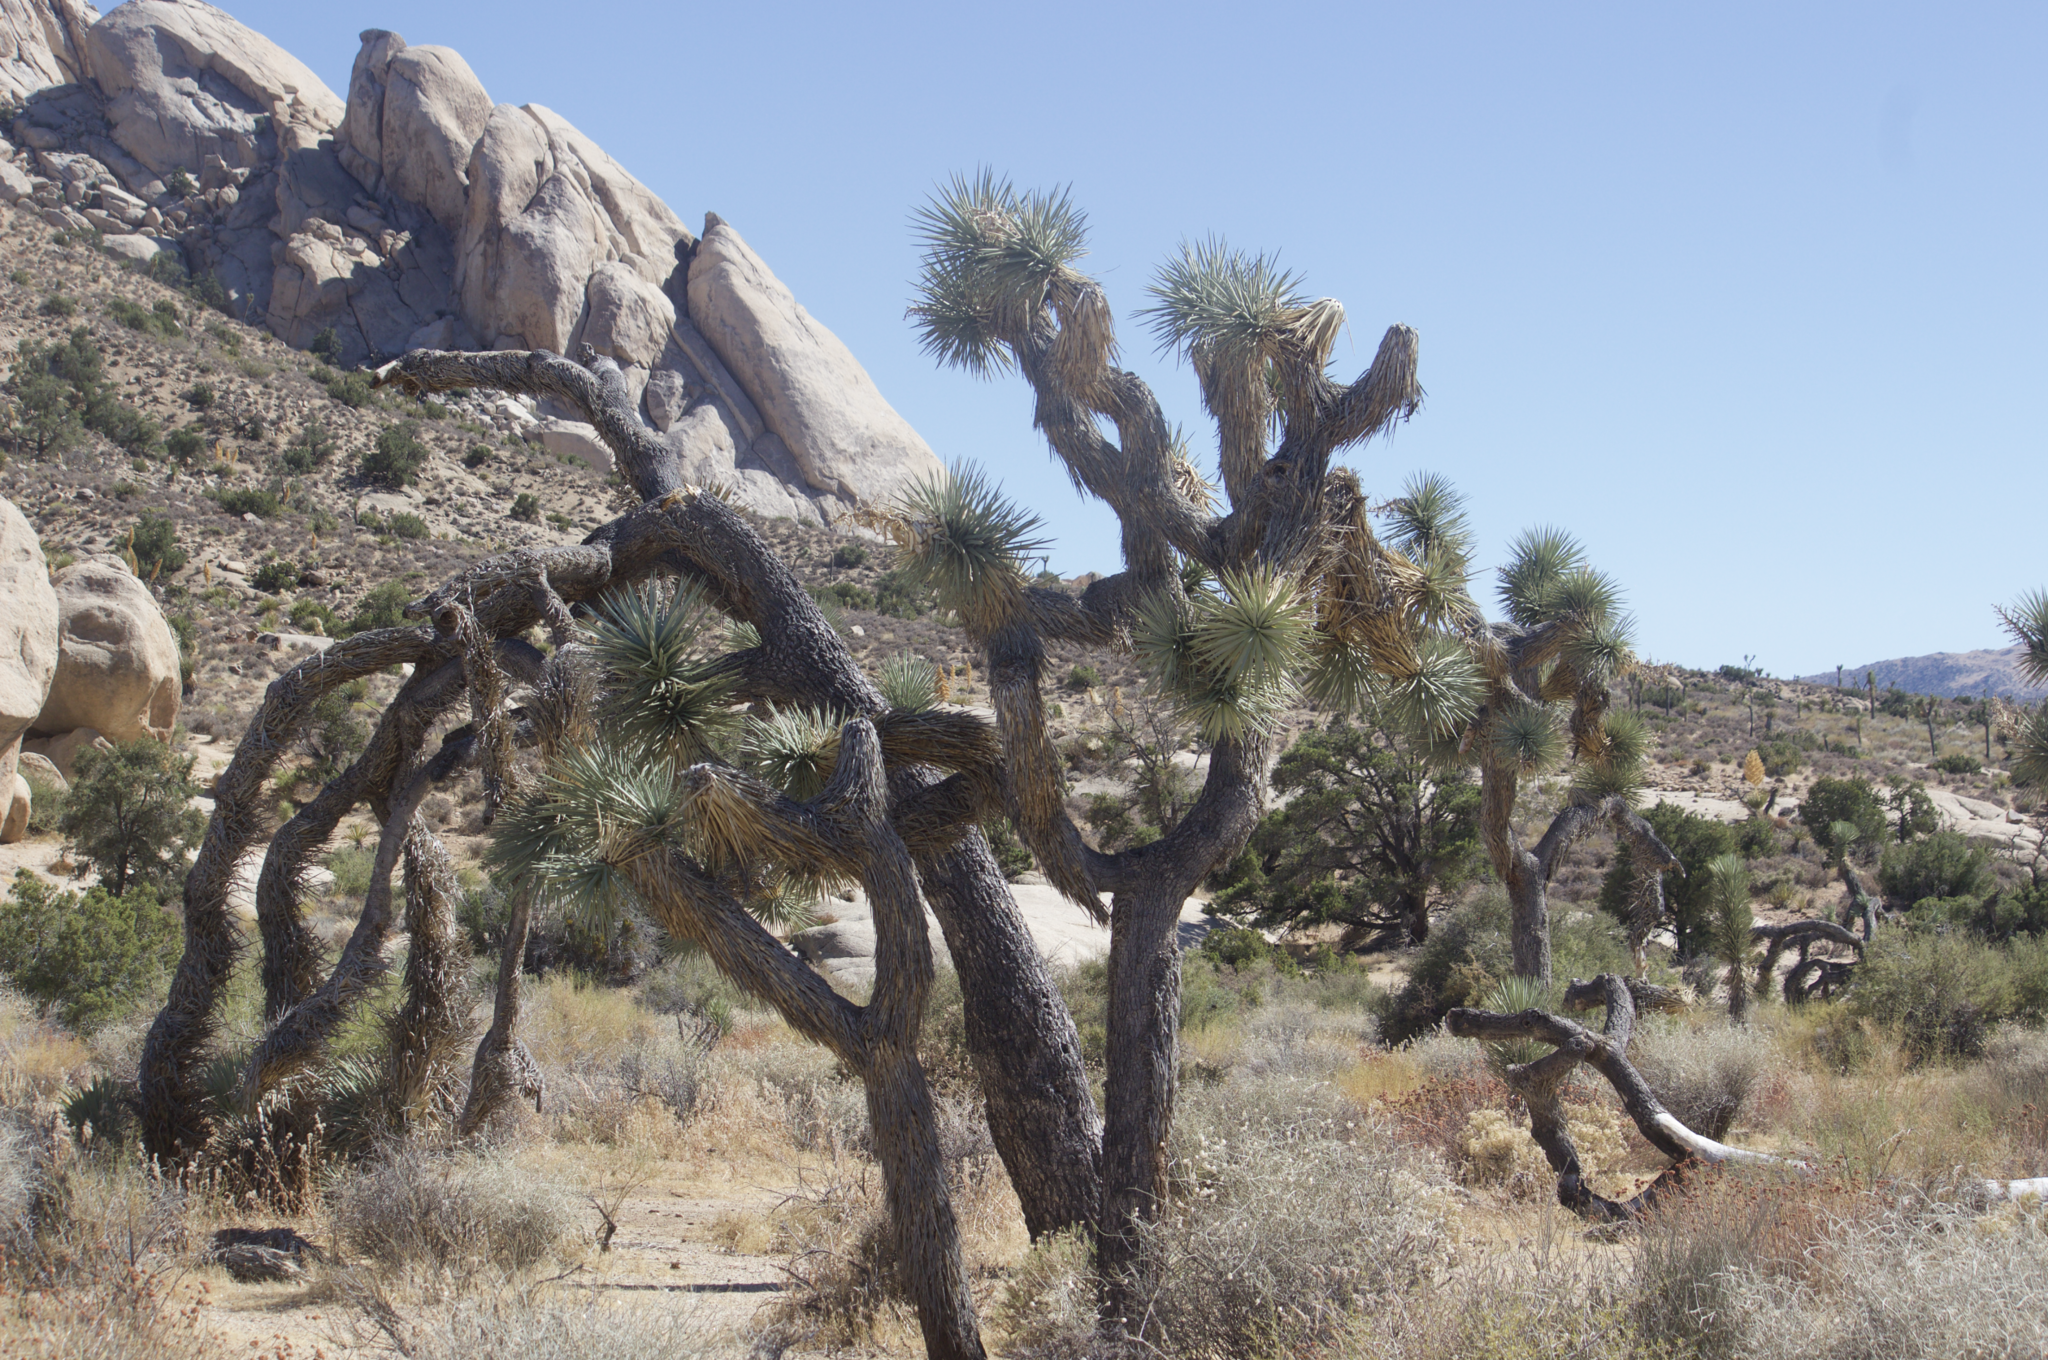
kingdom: Plantae
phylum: Tracheophyta
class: Liliopsida
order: Asparagales
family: Asparagaceae
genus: Yucca
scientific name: Yucca brevifolia
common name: Joshua tree
